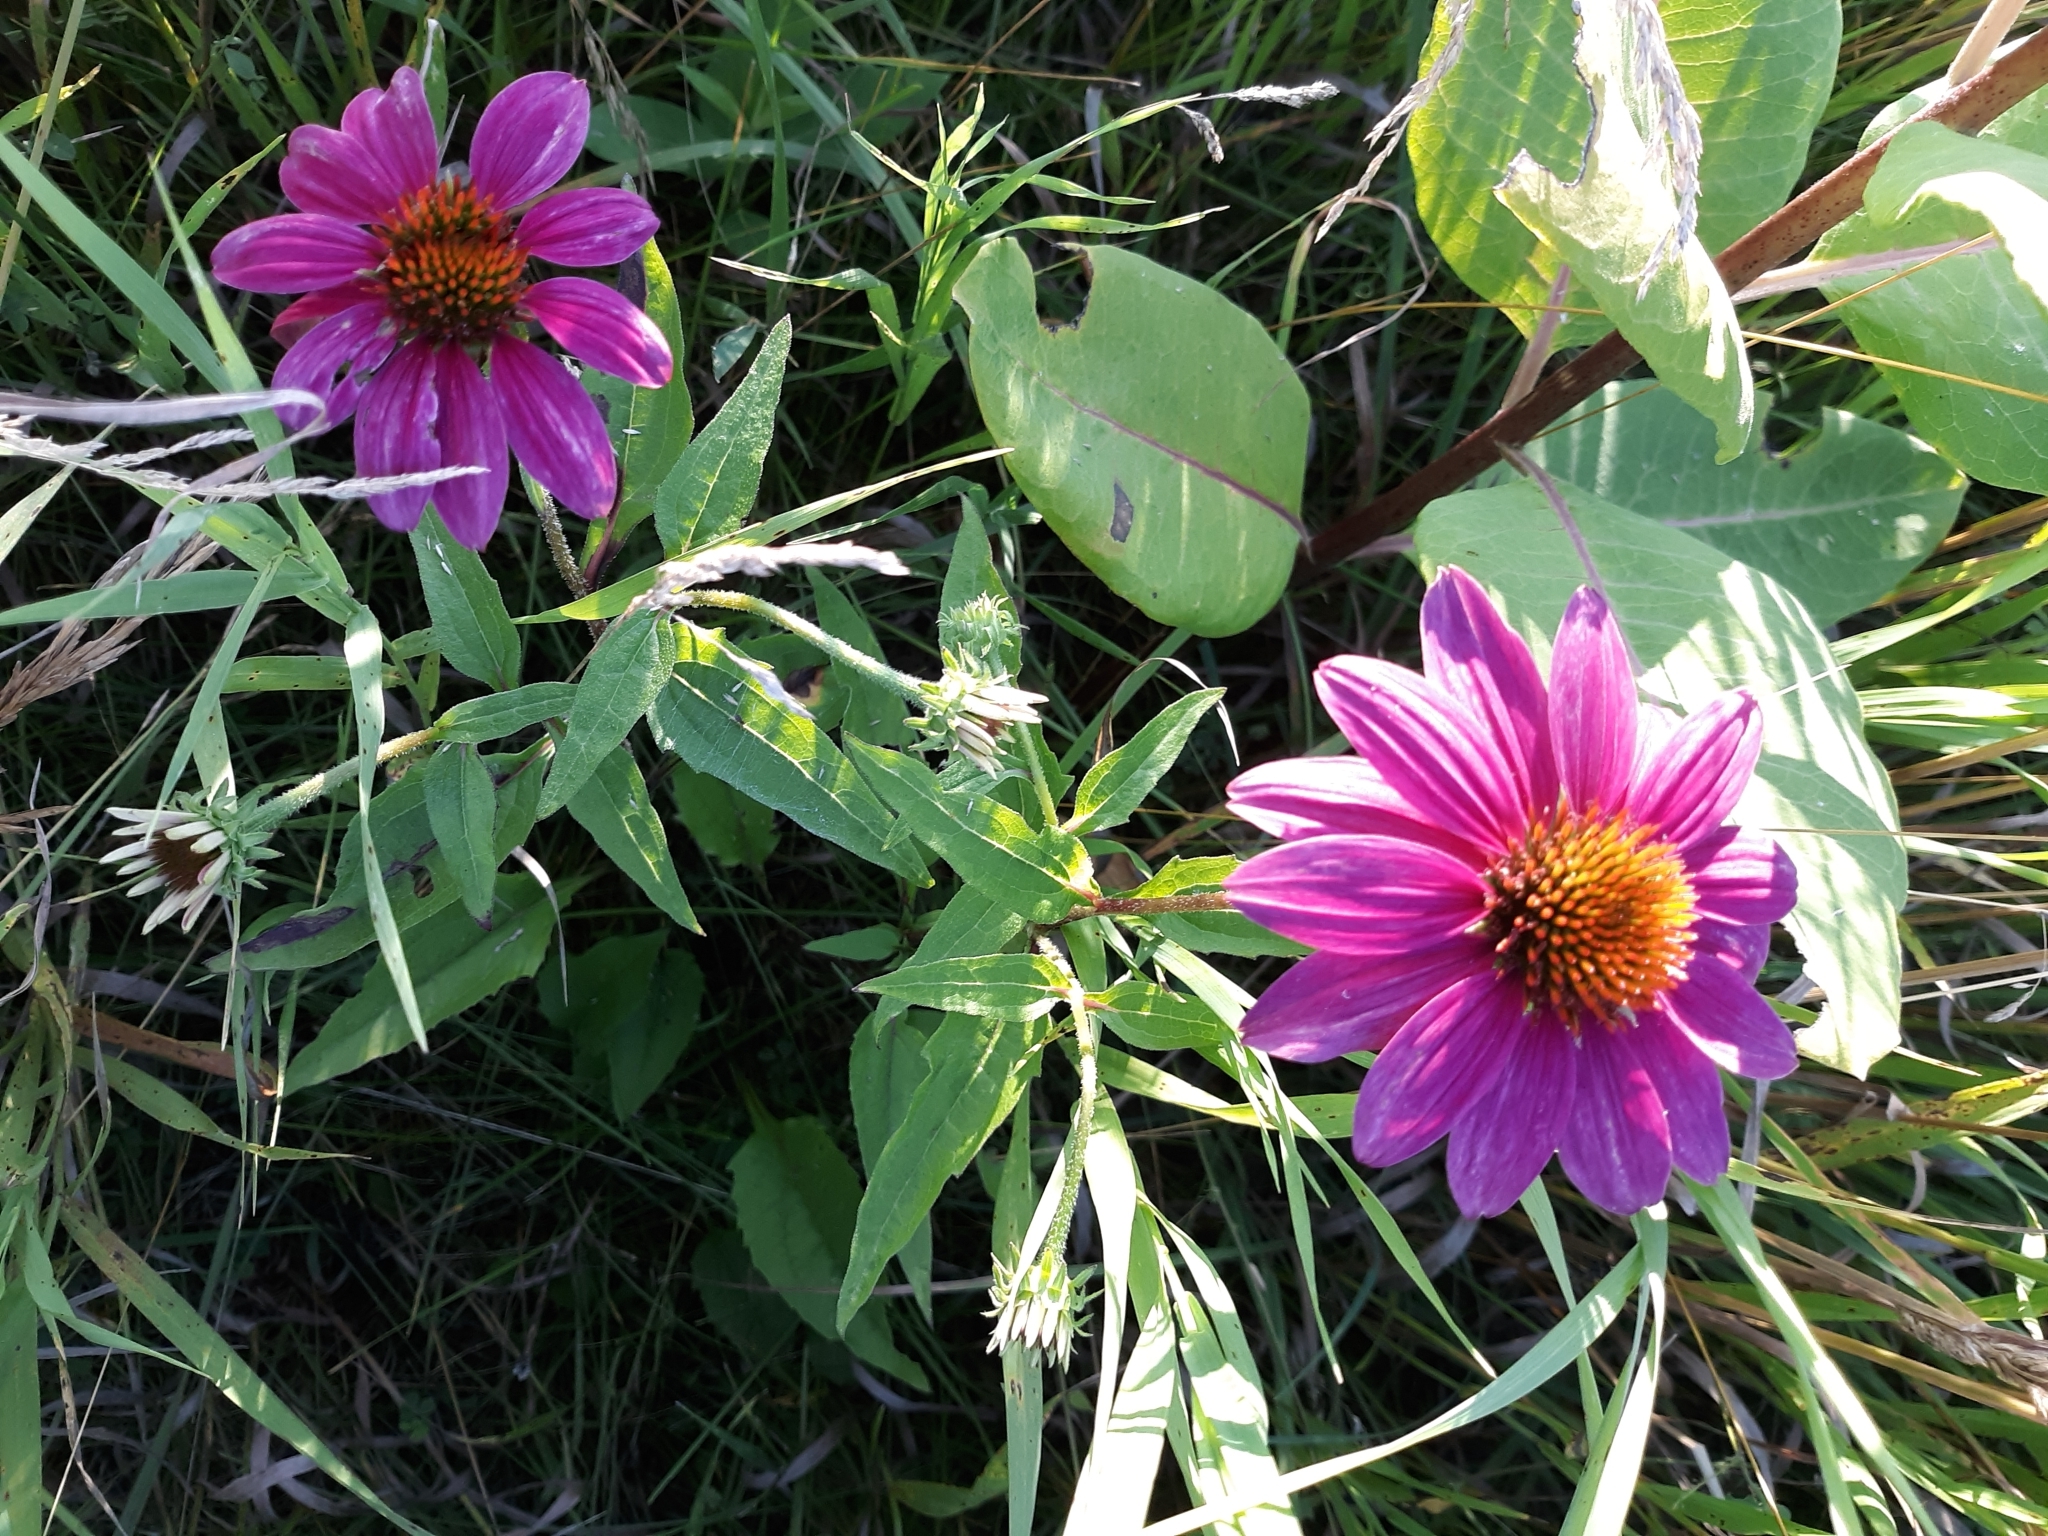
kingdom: Plantae
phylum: Tracheophyta
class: Magnoliopsida
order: Asterales
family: Asteraceae
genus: Echinacea
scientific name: Echinacea purpurea
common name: Broad-leaved purple coneflower
